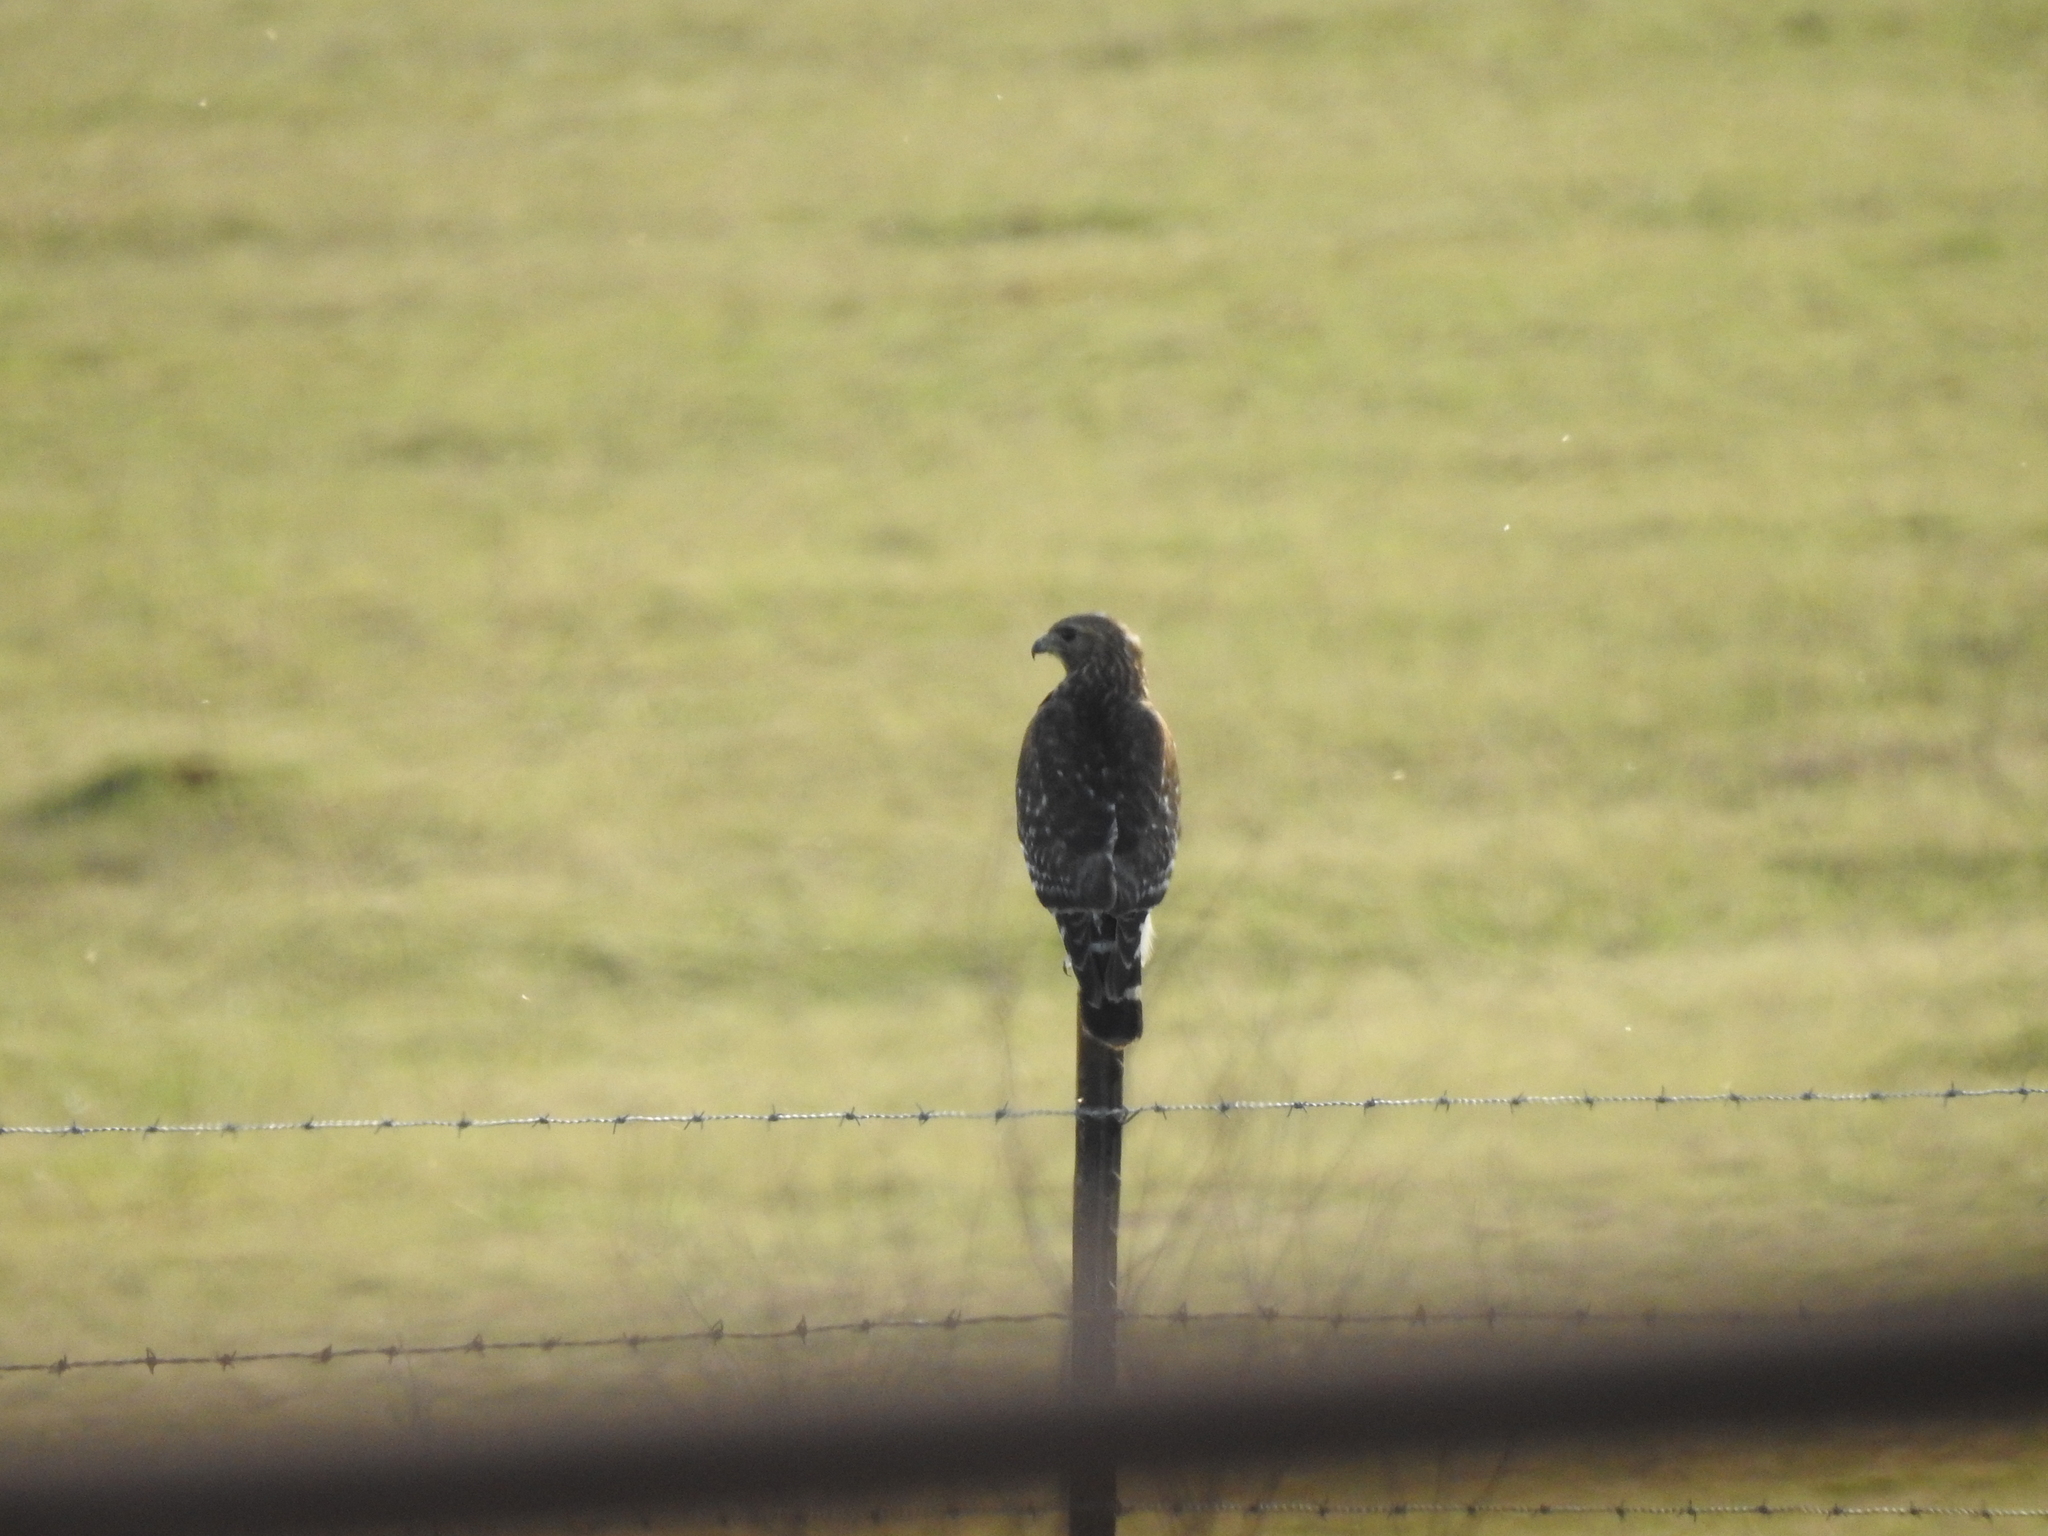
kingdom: Animalia
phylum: Chordata
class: Aves
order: Accipitriformes
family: Accipitridae
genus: Buteo
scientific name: Buteo lineatus
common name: Red-shouldered hawk
